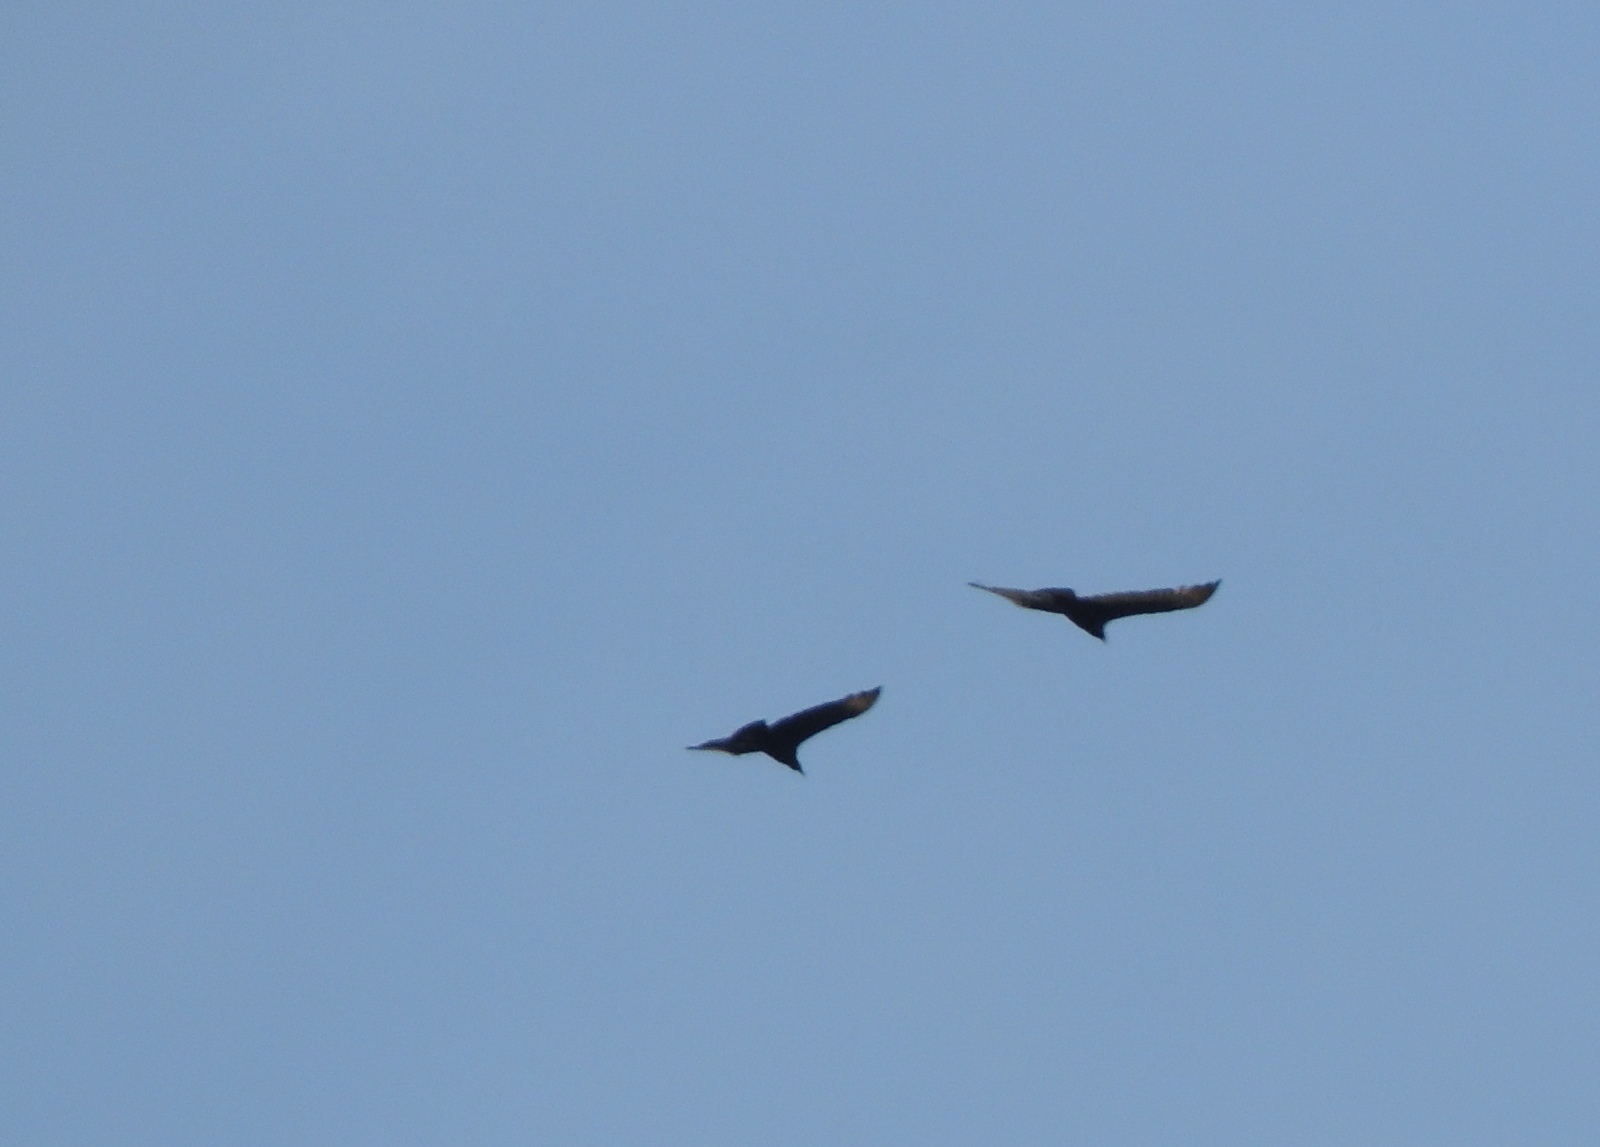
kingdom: Animalia
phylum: Chordata
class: Aves
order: Accipitriformes
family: Cathartidae
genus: Cathartes
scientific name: Cathartes aura
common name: Turkey vulture
